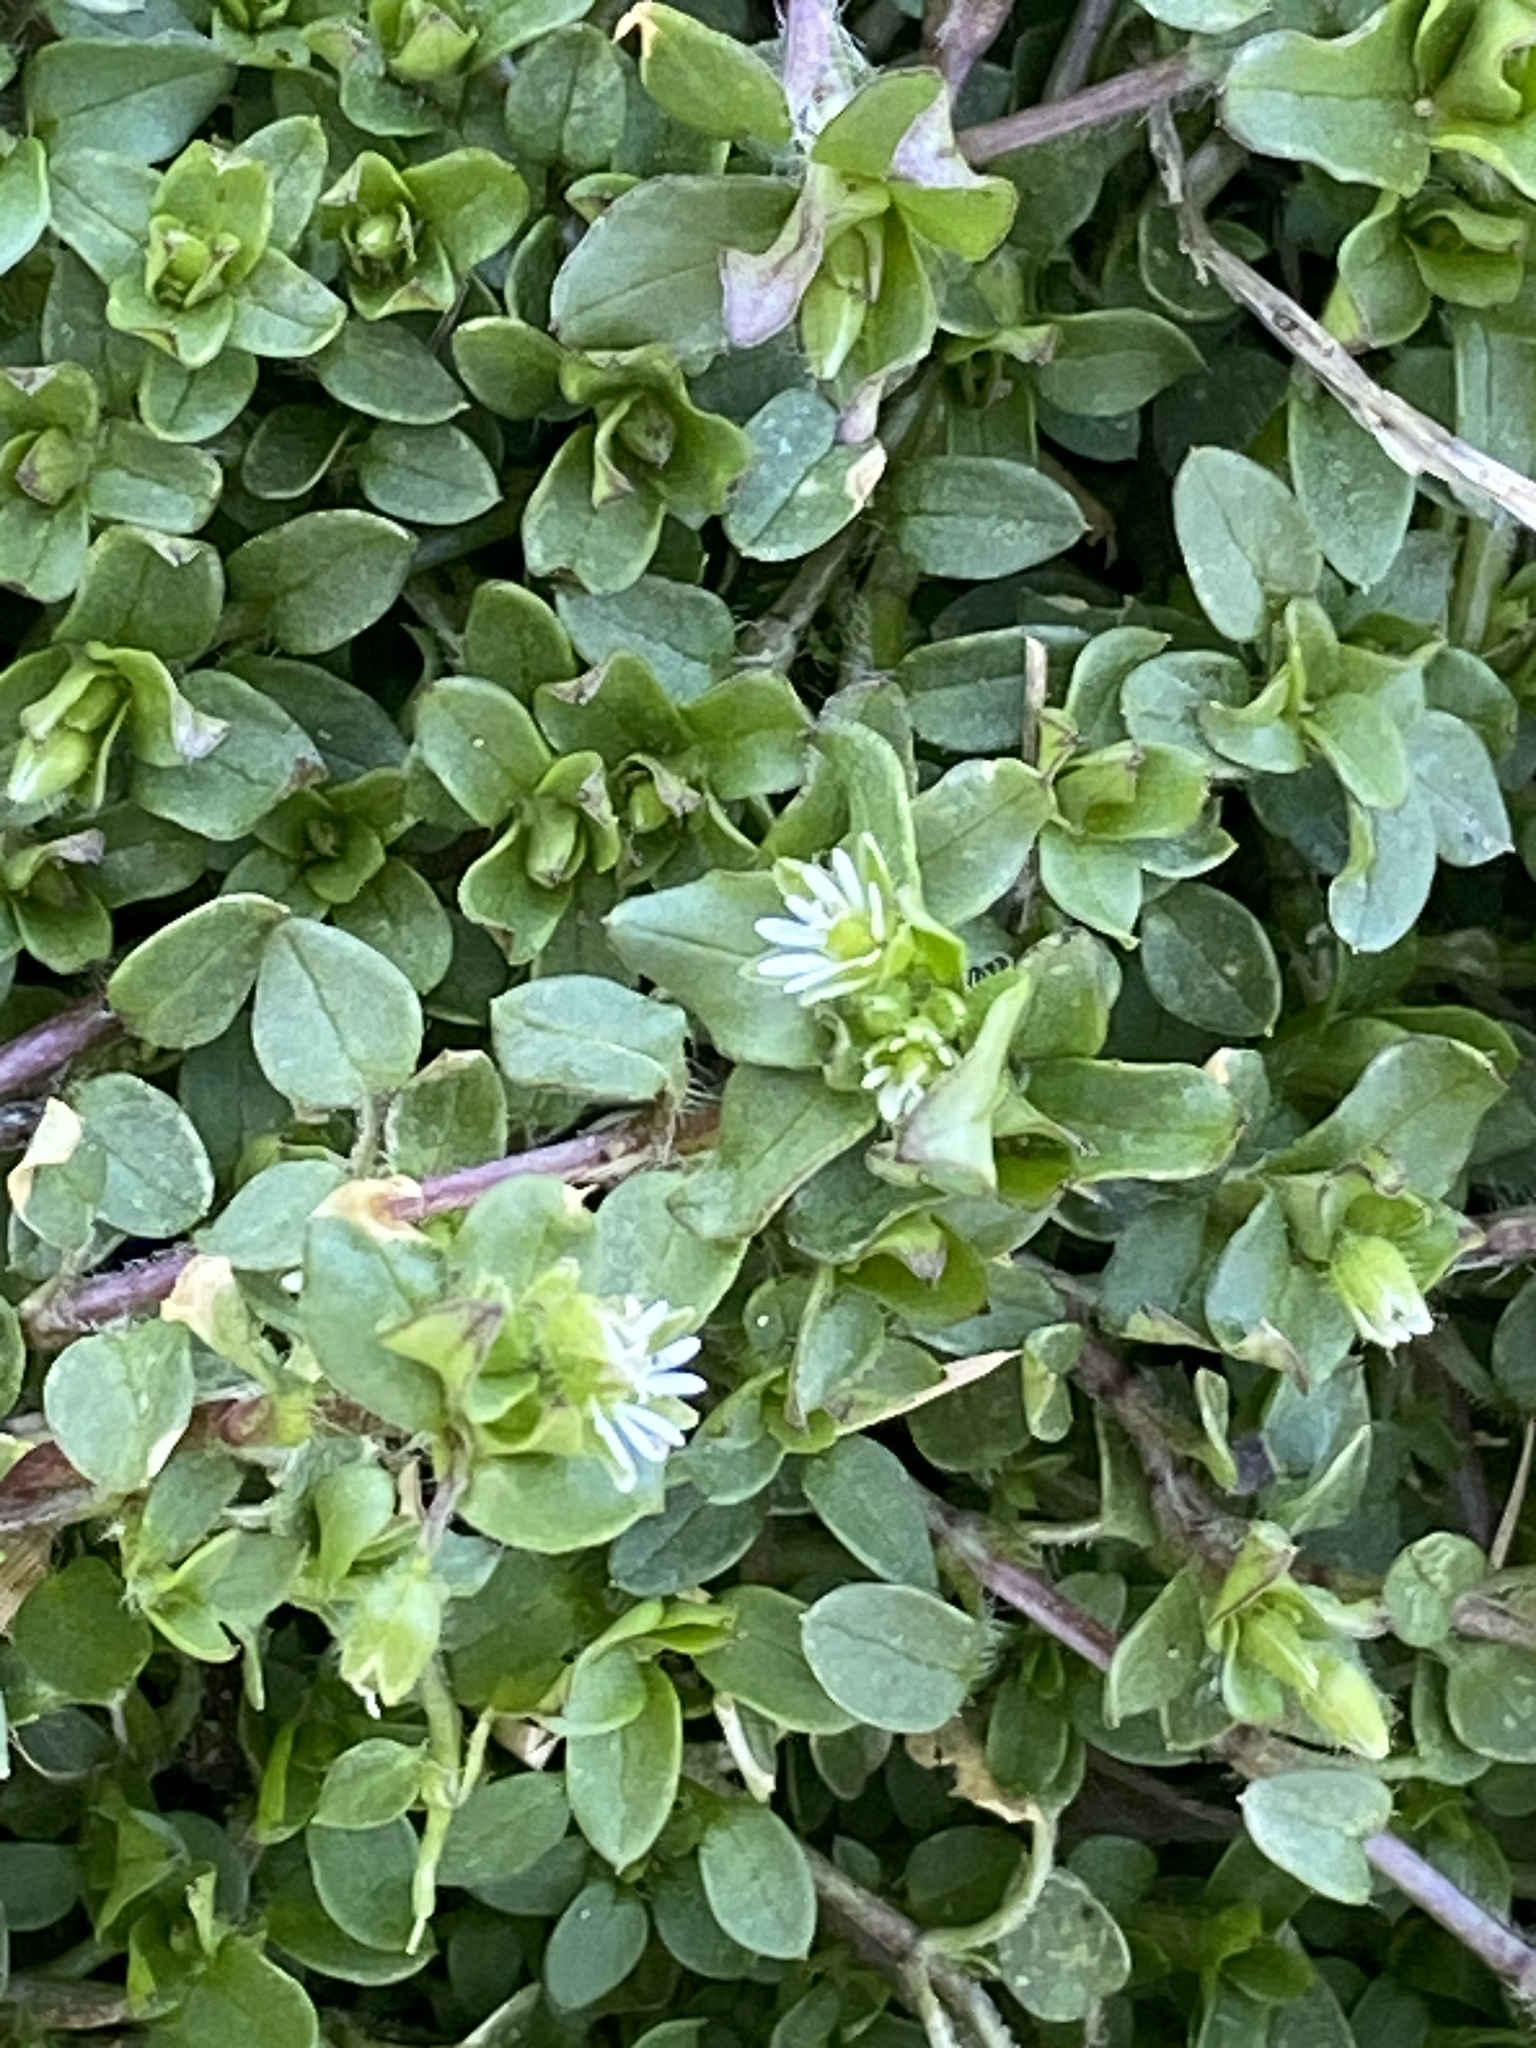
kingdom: Plantae
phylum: Tracheophyta
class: Magnoliopsida
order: Caryophyllales
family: Caryophyllaceae
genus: Stellaria
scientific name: Stellaria media
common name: Common chickweed
